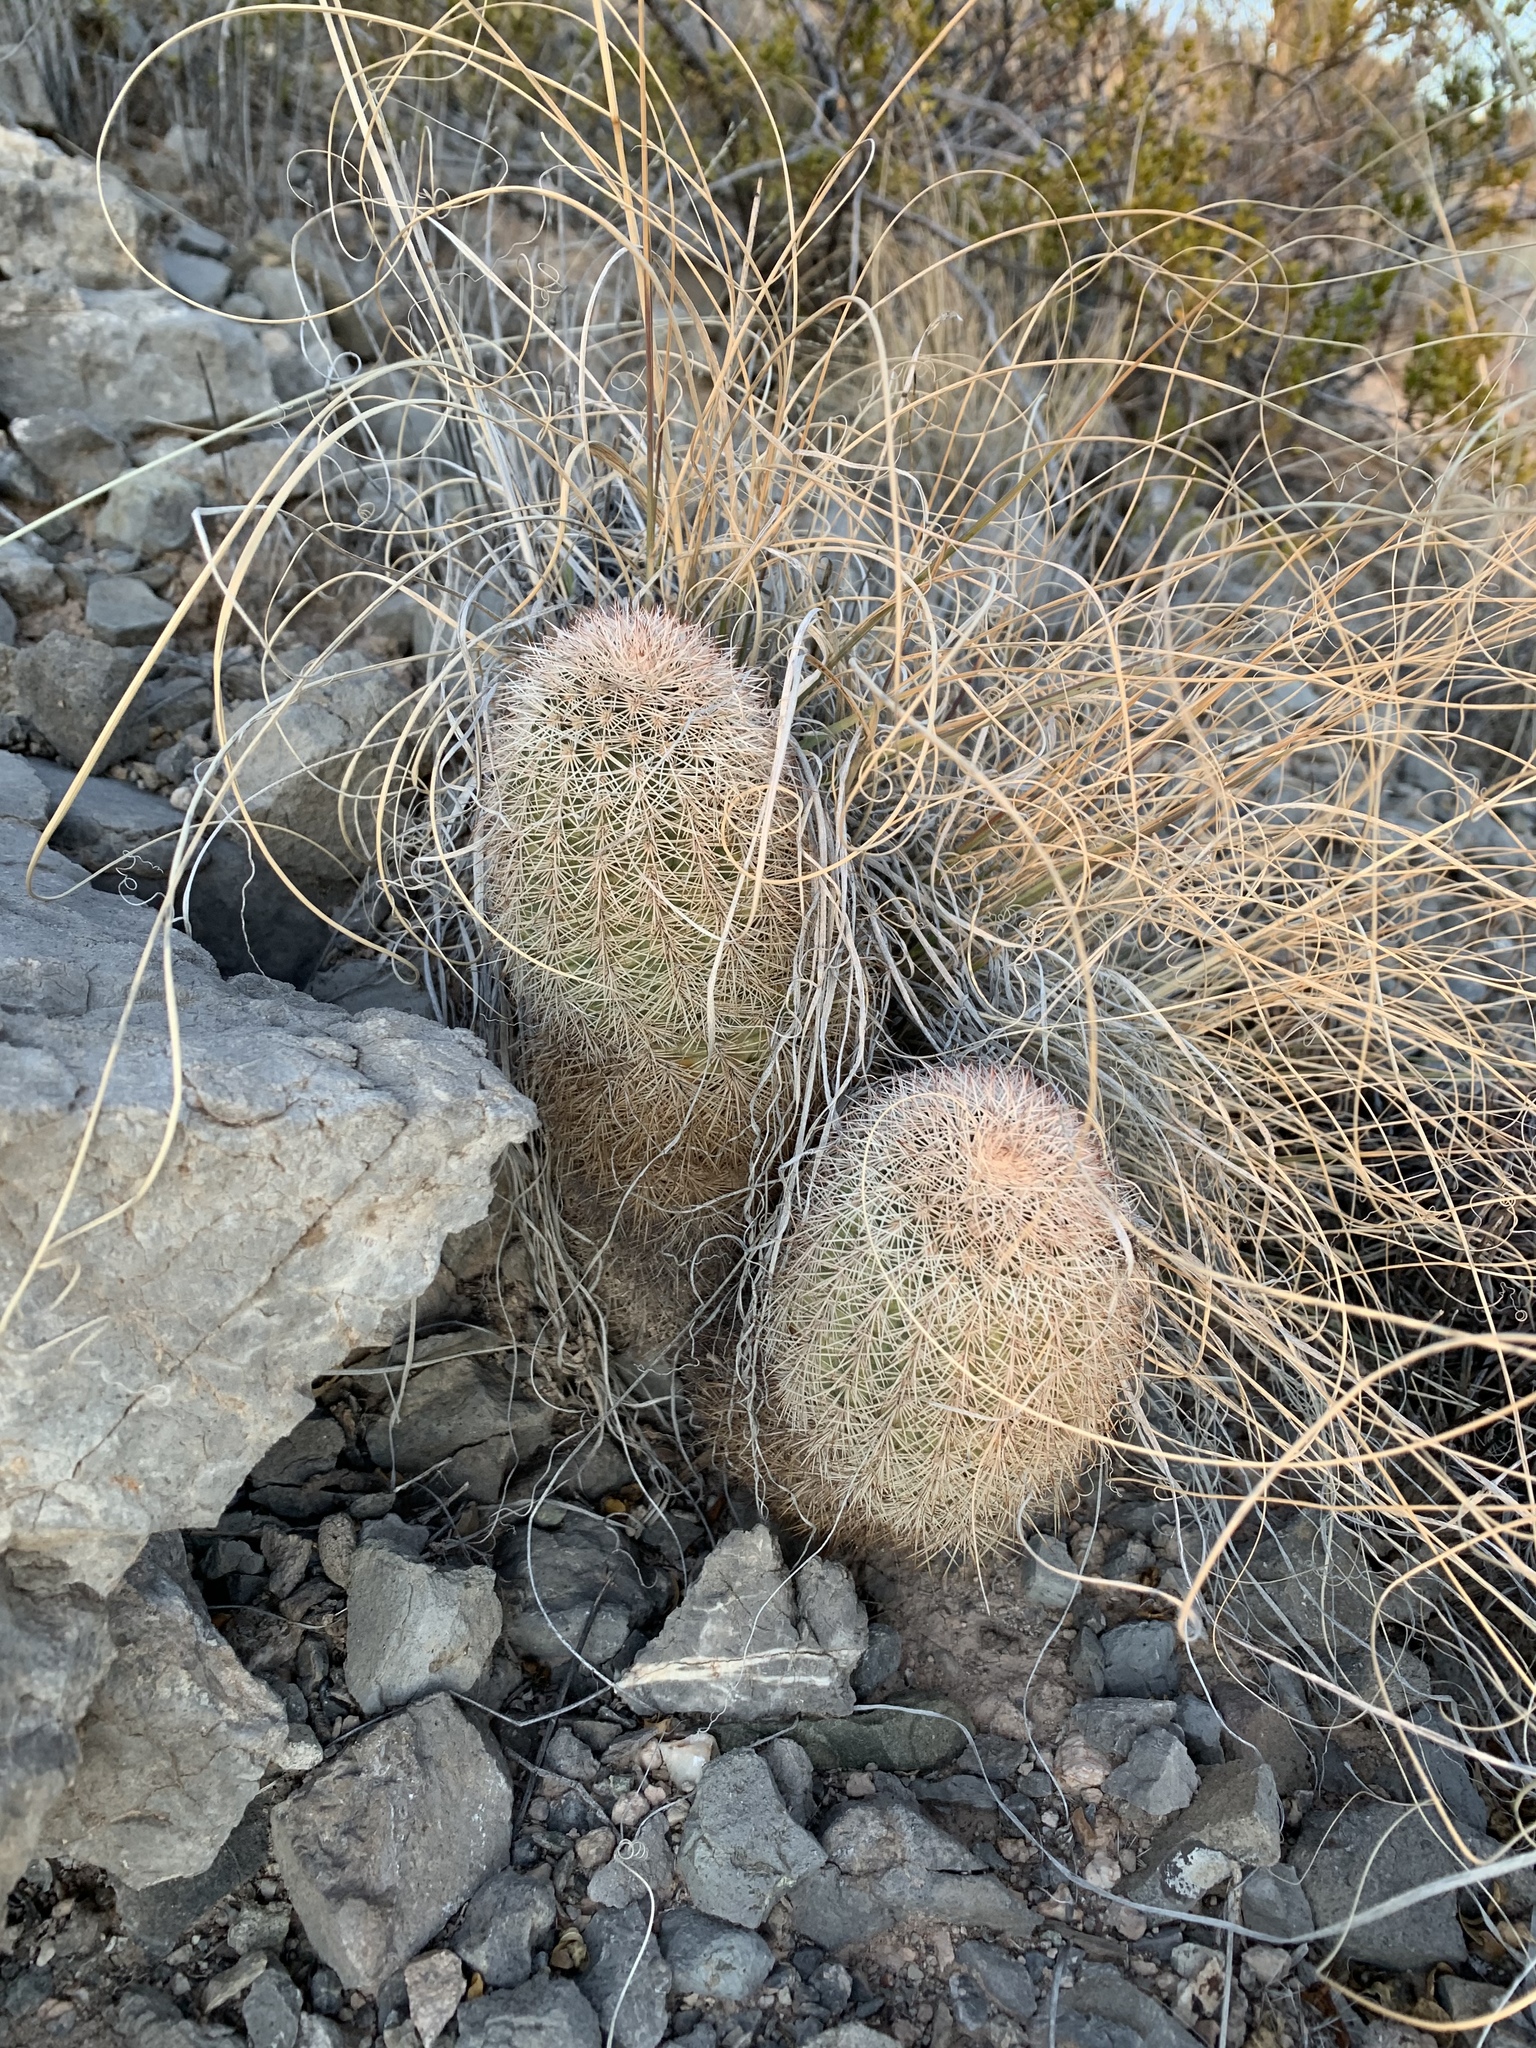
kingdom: Plantae
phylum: Tracheophyta
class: Magnoliopsida
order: Caryophyllales
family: Cactaceae
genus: Echinocereus
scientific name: Echinocereus dasyacanthus
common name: Spiny hedgehog cactus
